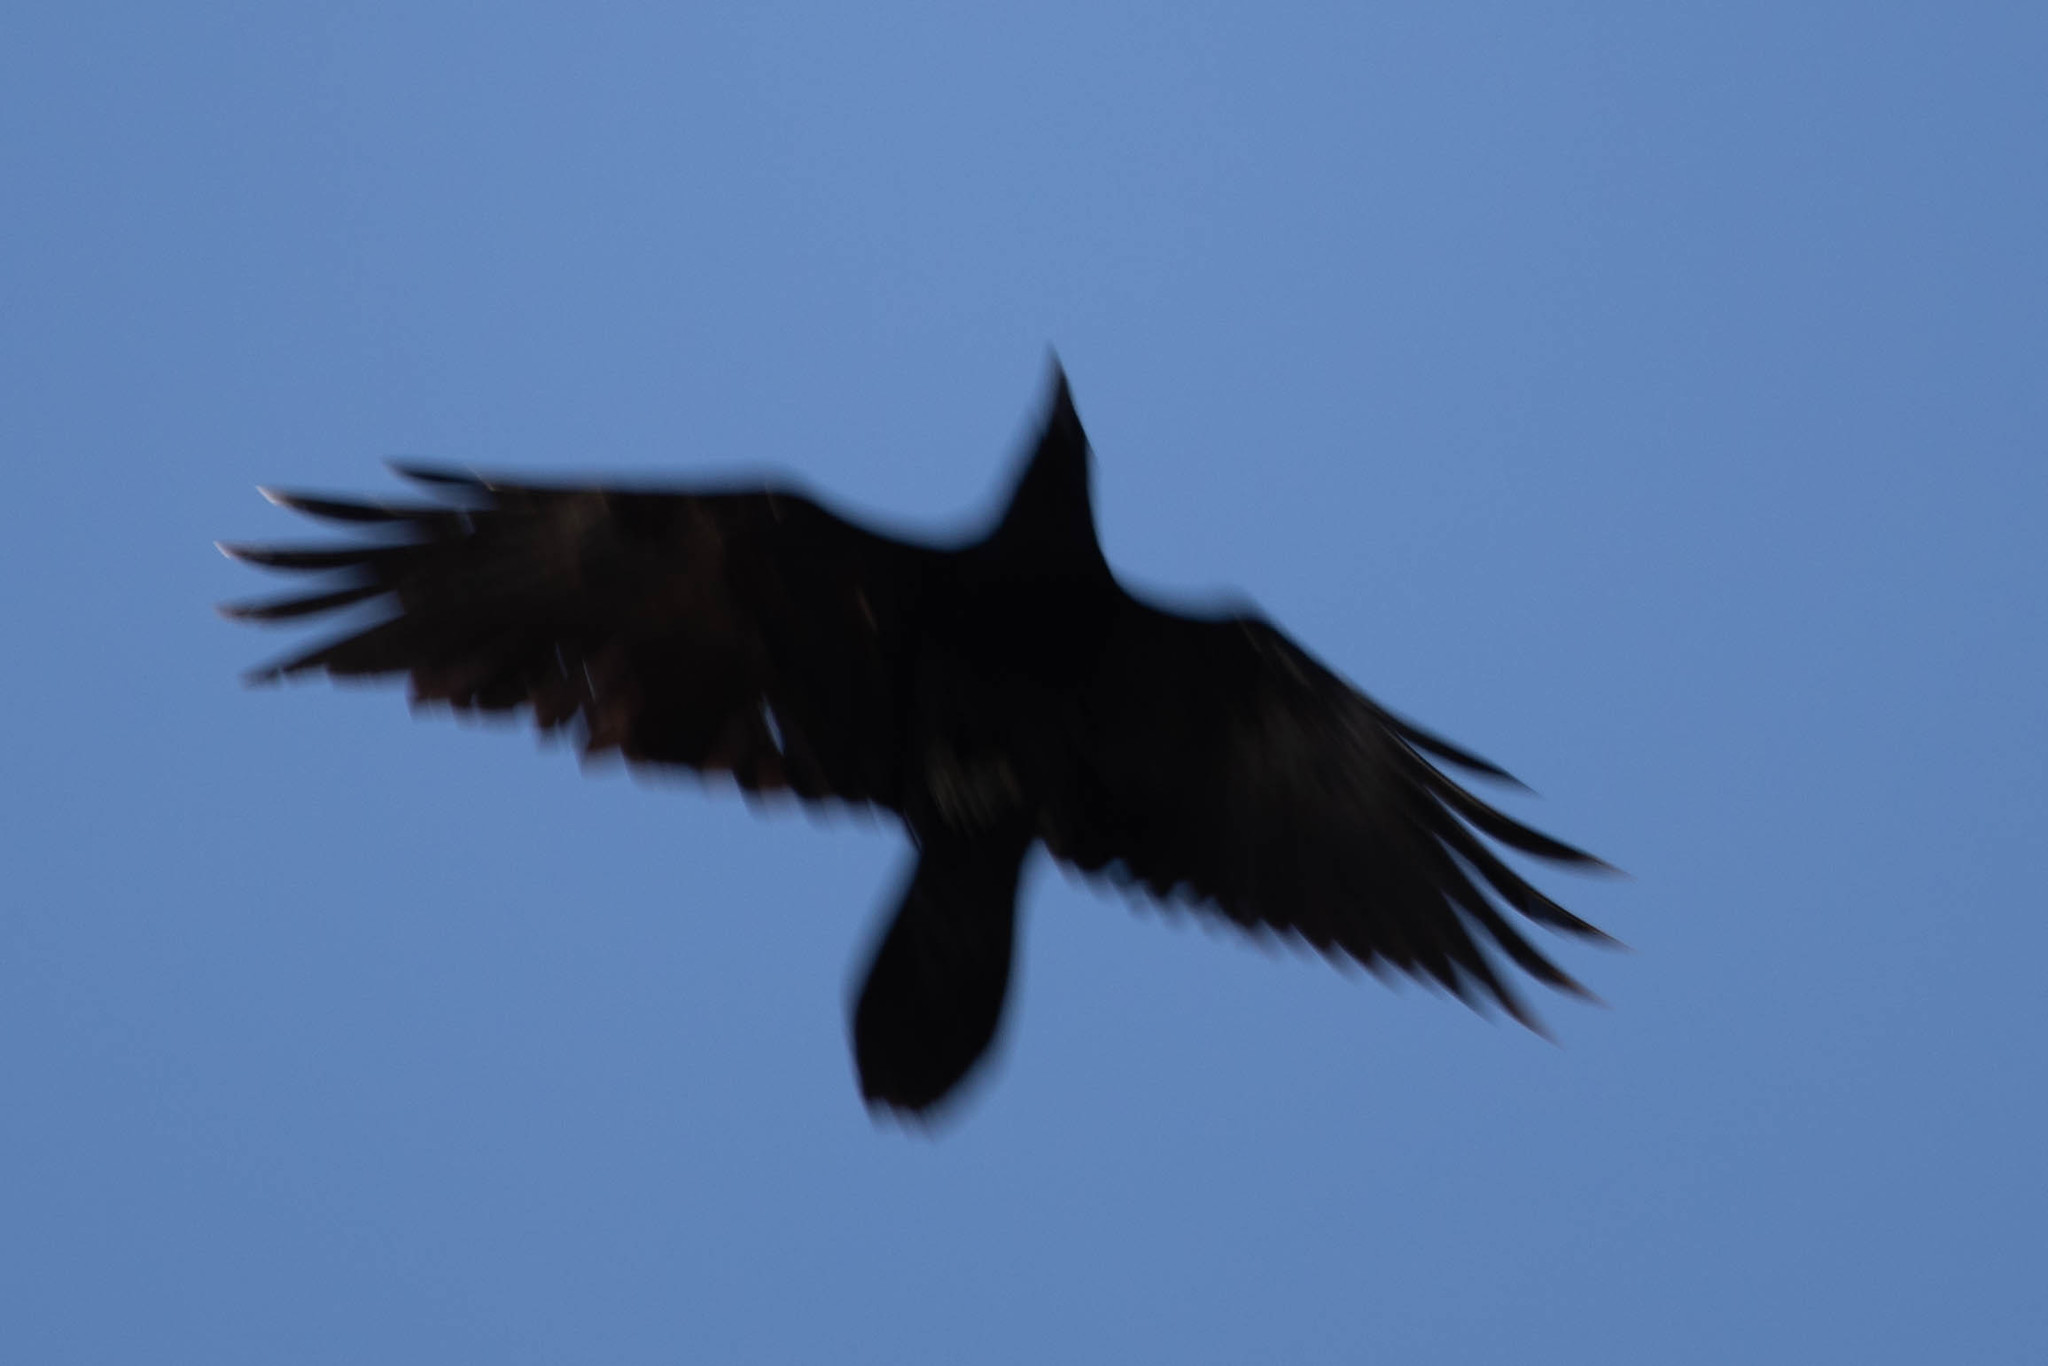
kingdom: Animalia
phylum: Chordata
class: Aves
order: Passeriformes
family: Corvidae
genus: Corvus
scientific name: Corvus corax
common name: Common raven
